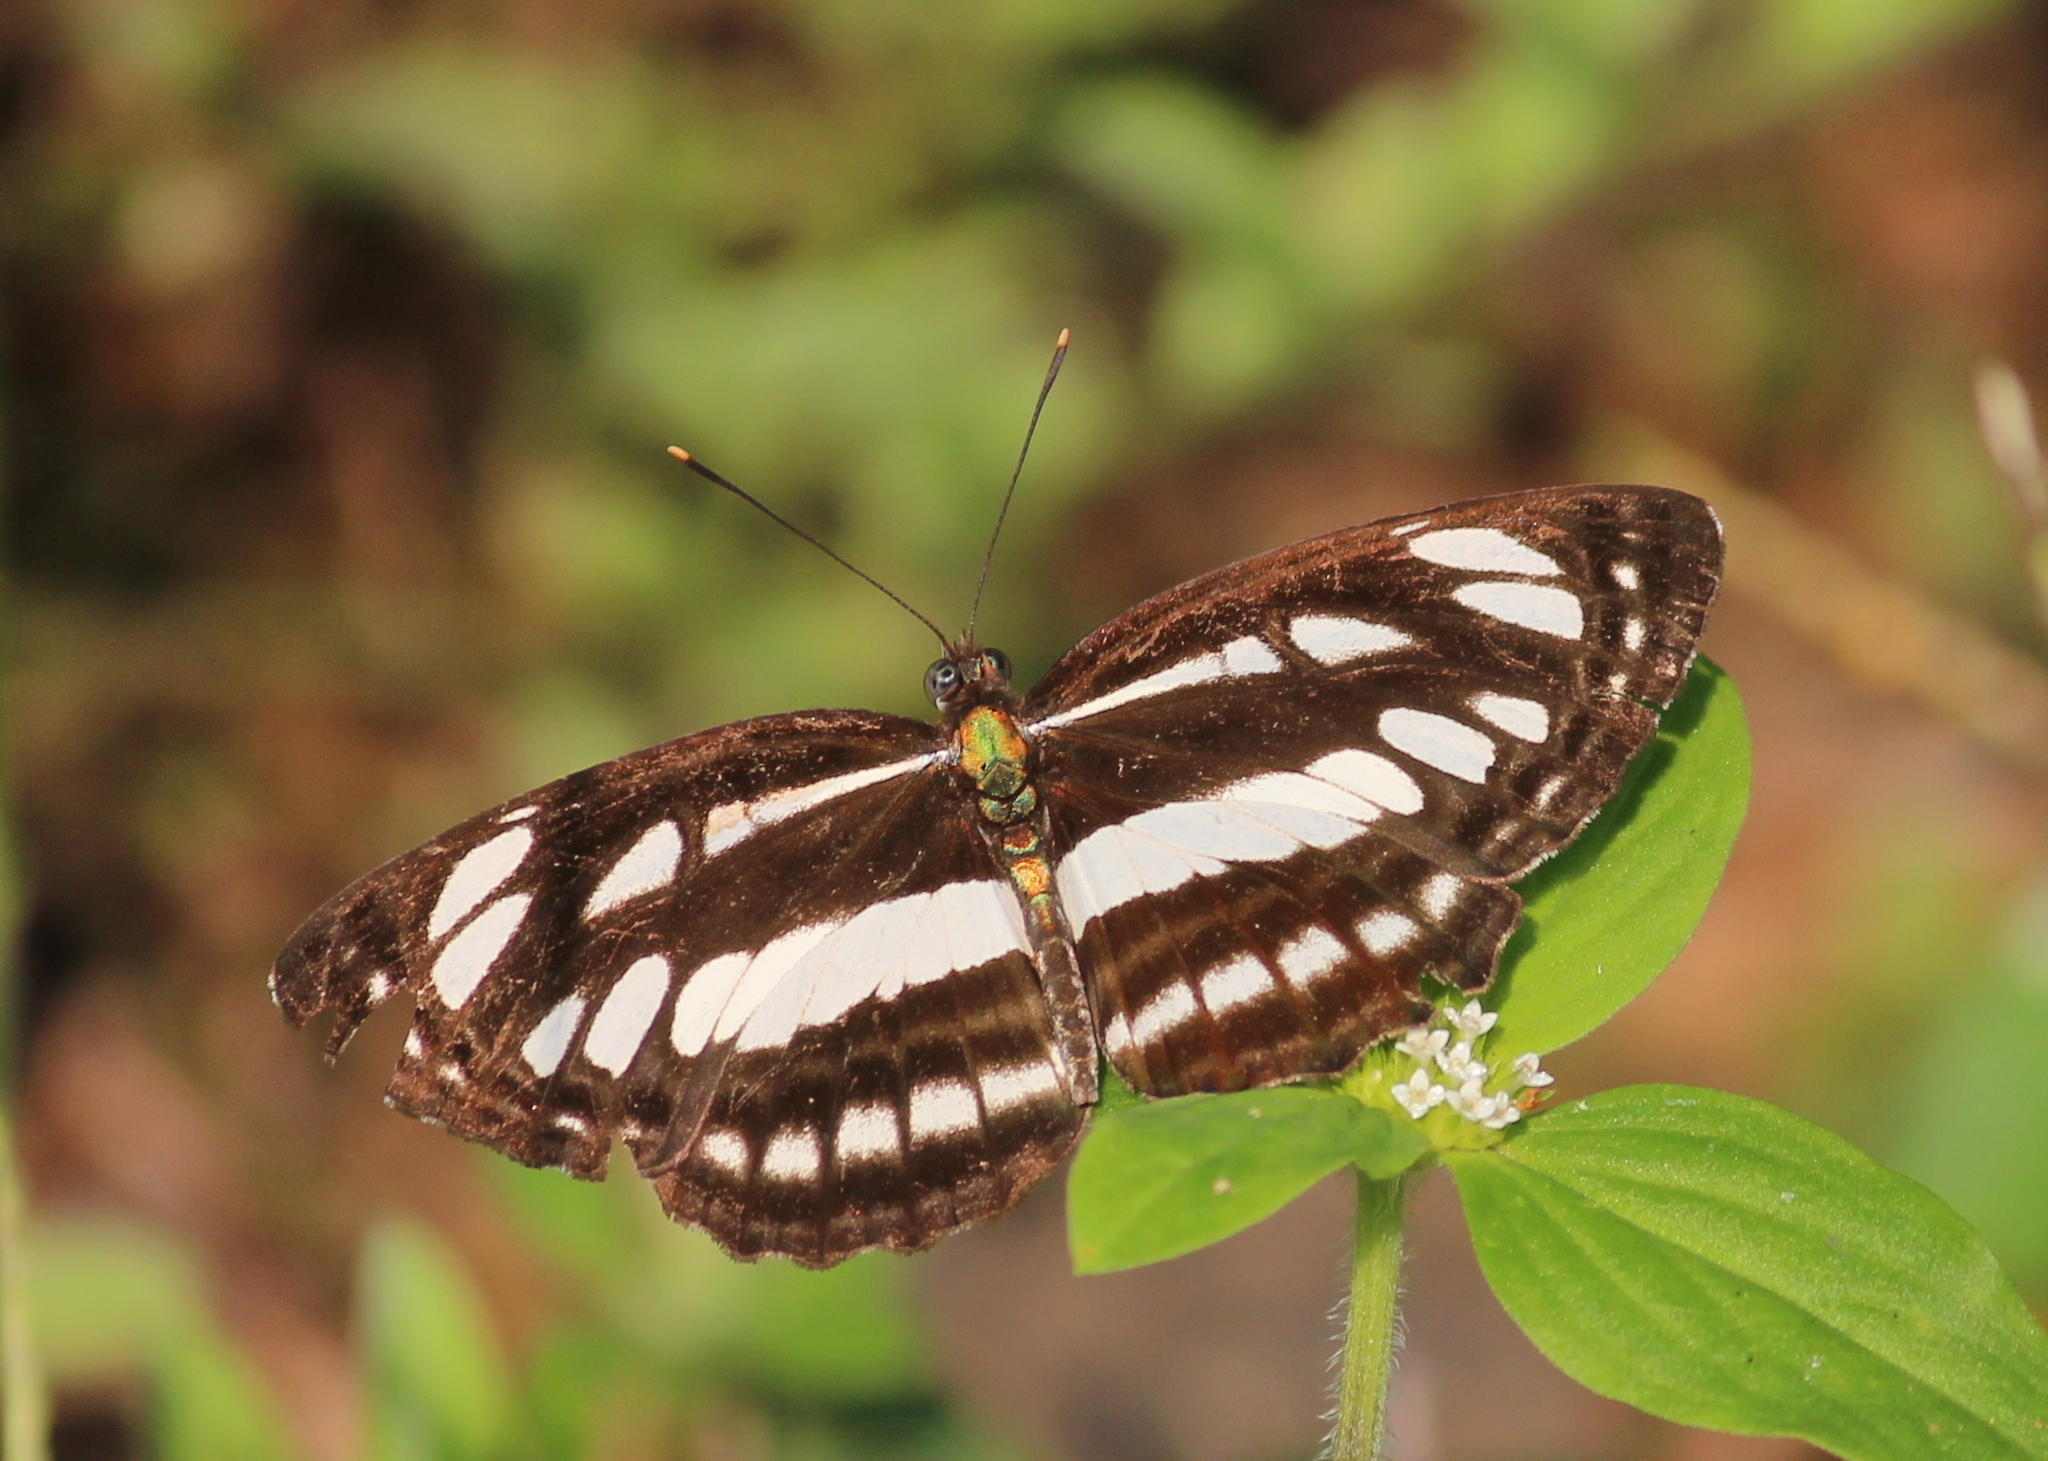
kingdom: Animalia
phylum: Arthropoda
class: Insecta
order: Lepidoptera
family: Nymphalidae
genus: Neptis
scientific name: Neptis hylas
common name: Common sailer
